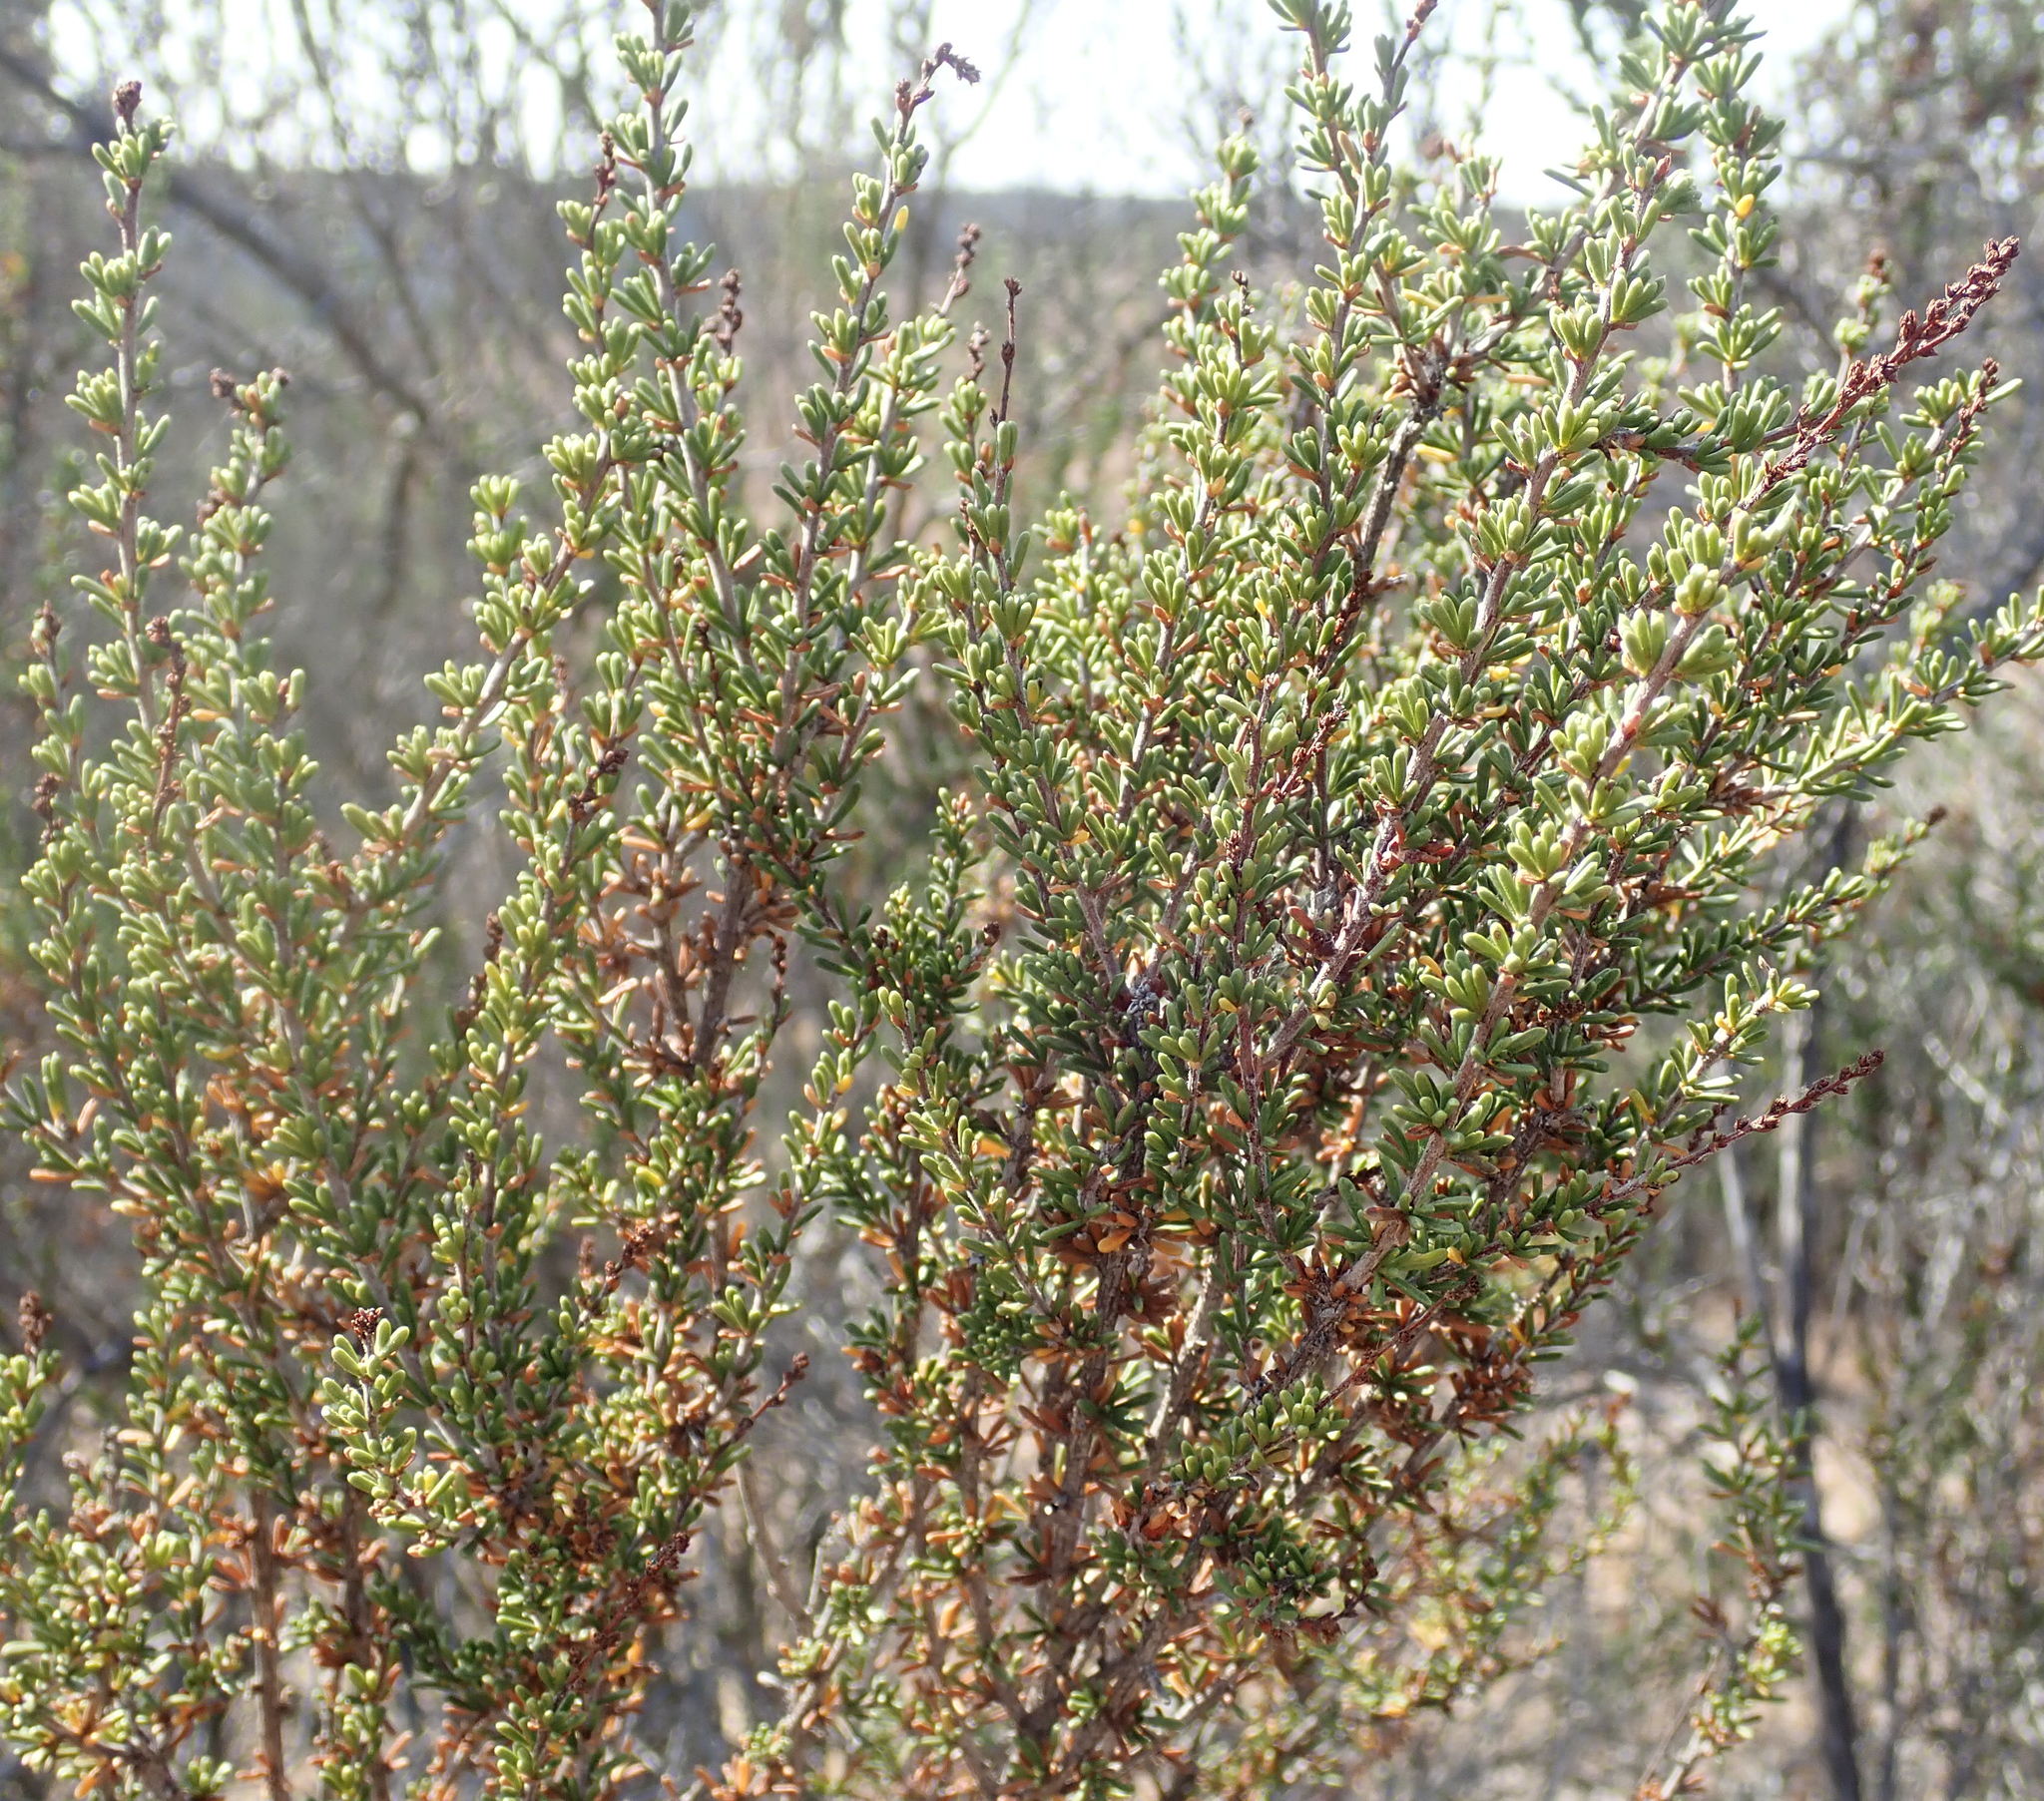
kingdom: Plantae
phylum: Tracheophyta
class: Magnoliopsida
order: Rosales
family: Rosaceae
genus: Adenostoma
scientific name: Adenostoma fasciculatum
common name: Chamise
